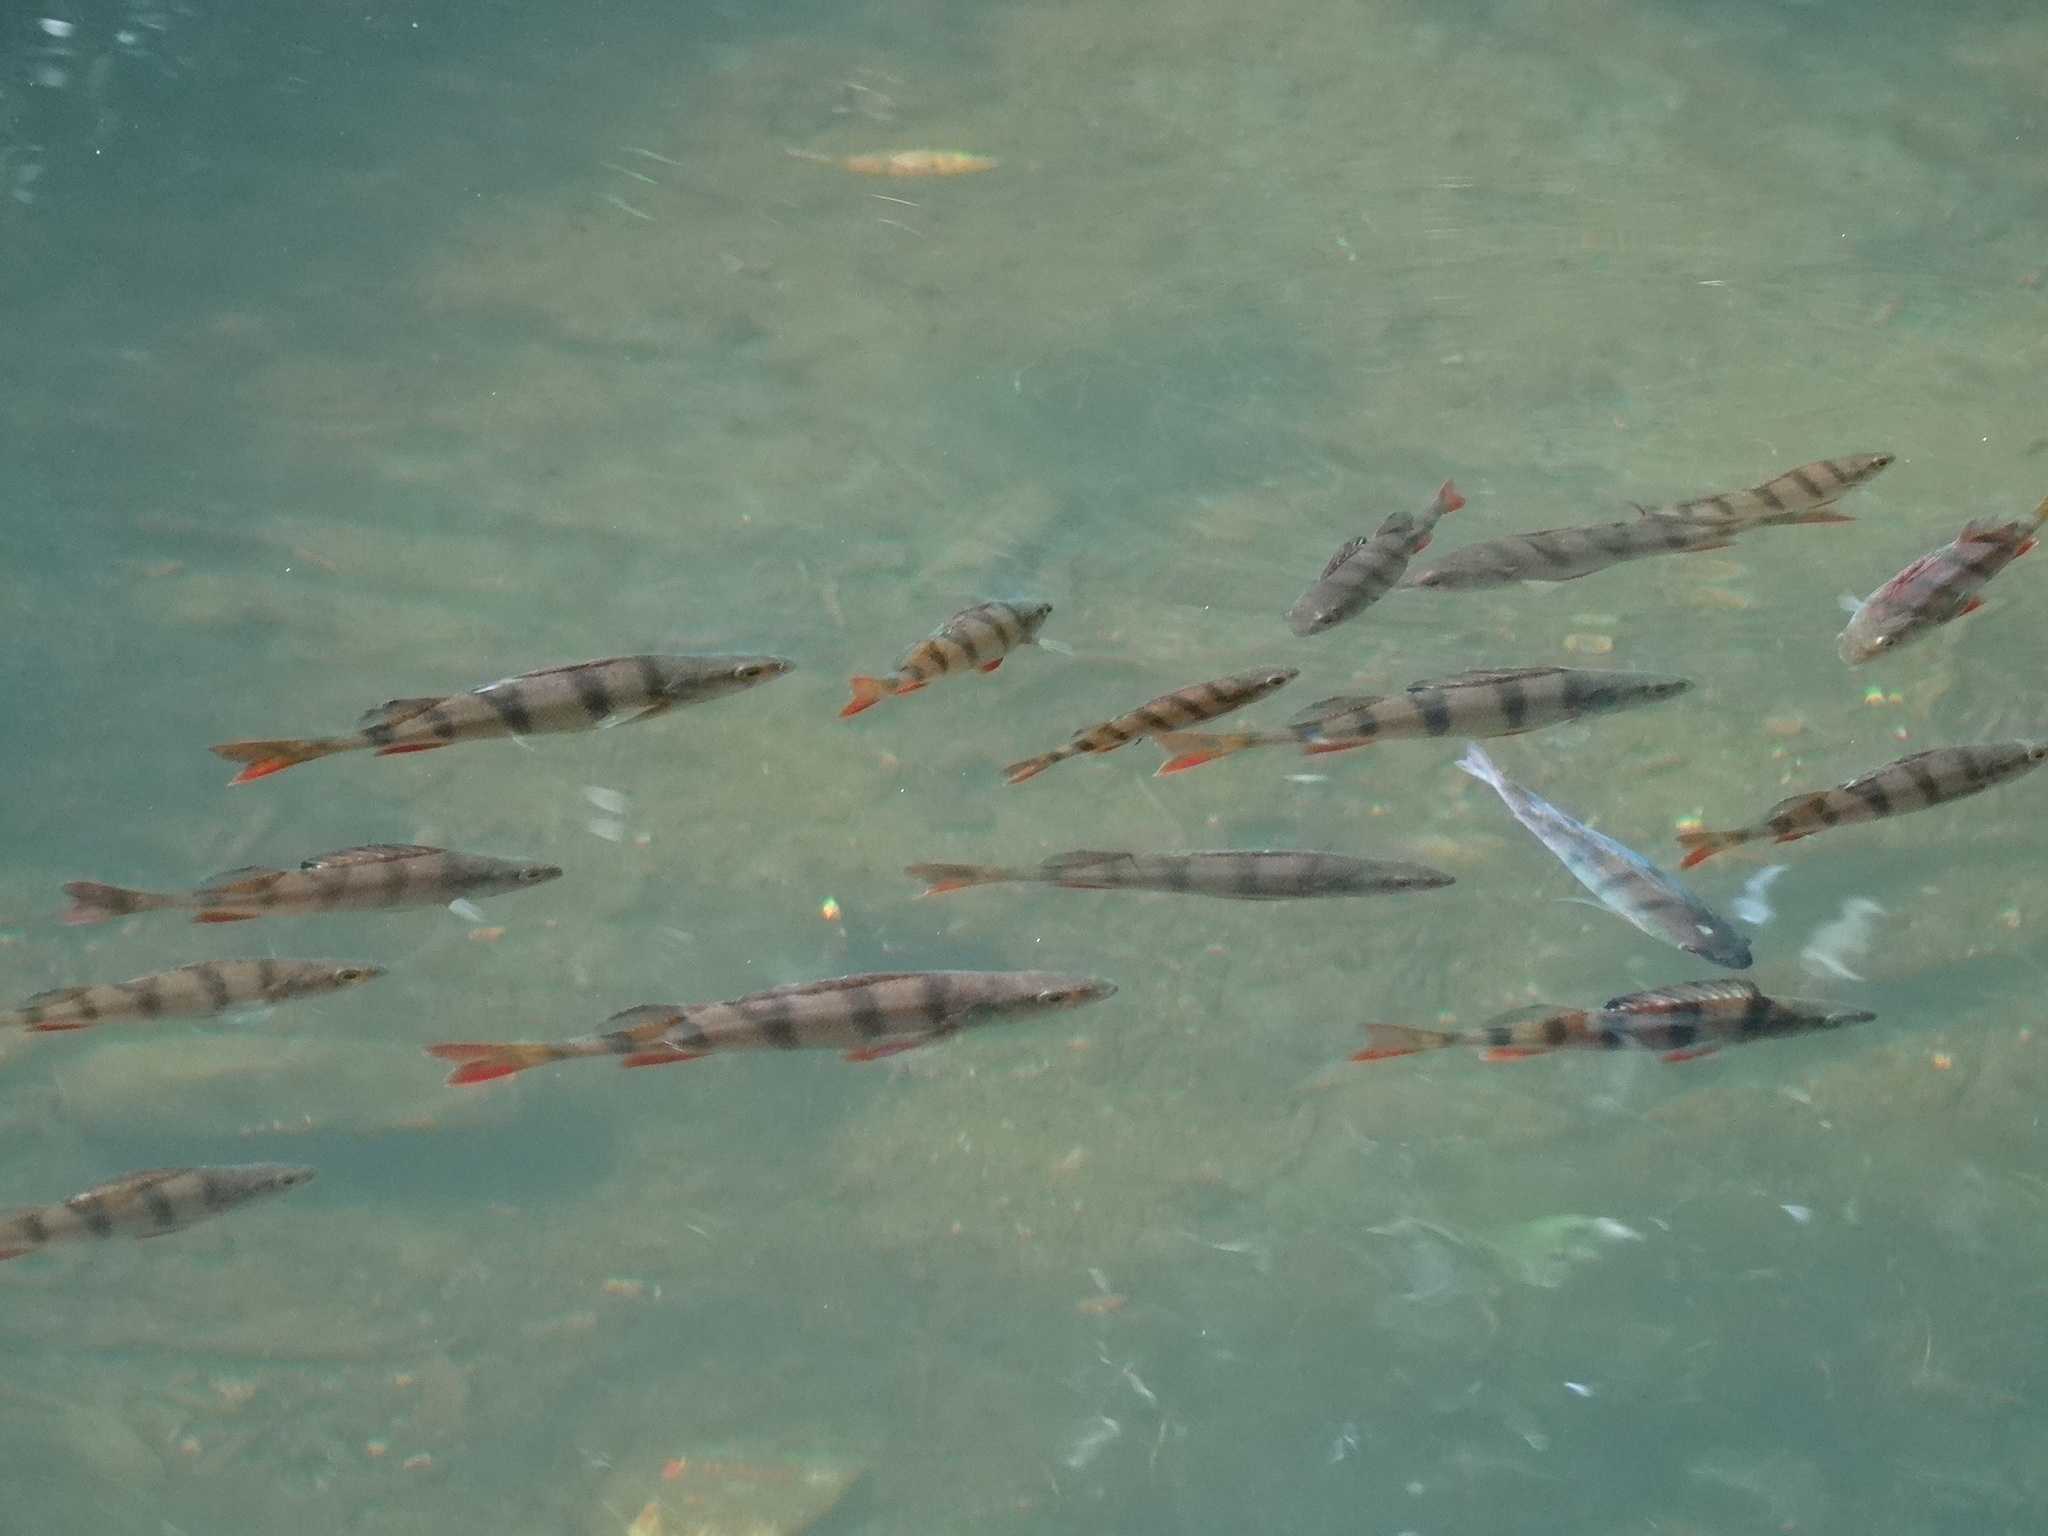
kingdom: Animalia
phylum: Chordata
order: Perciformes
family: Percidae
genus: Perca
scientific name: Perca fluviatilis
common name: Perch
